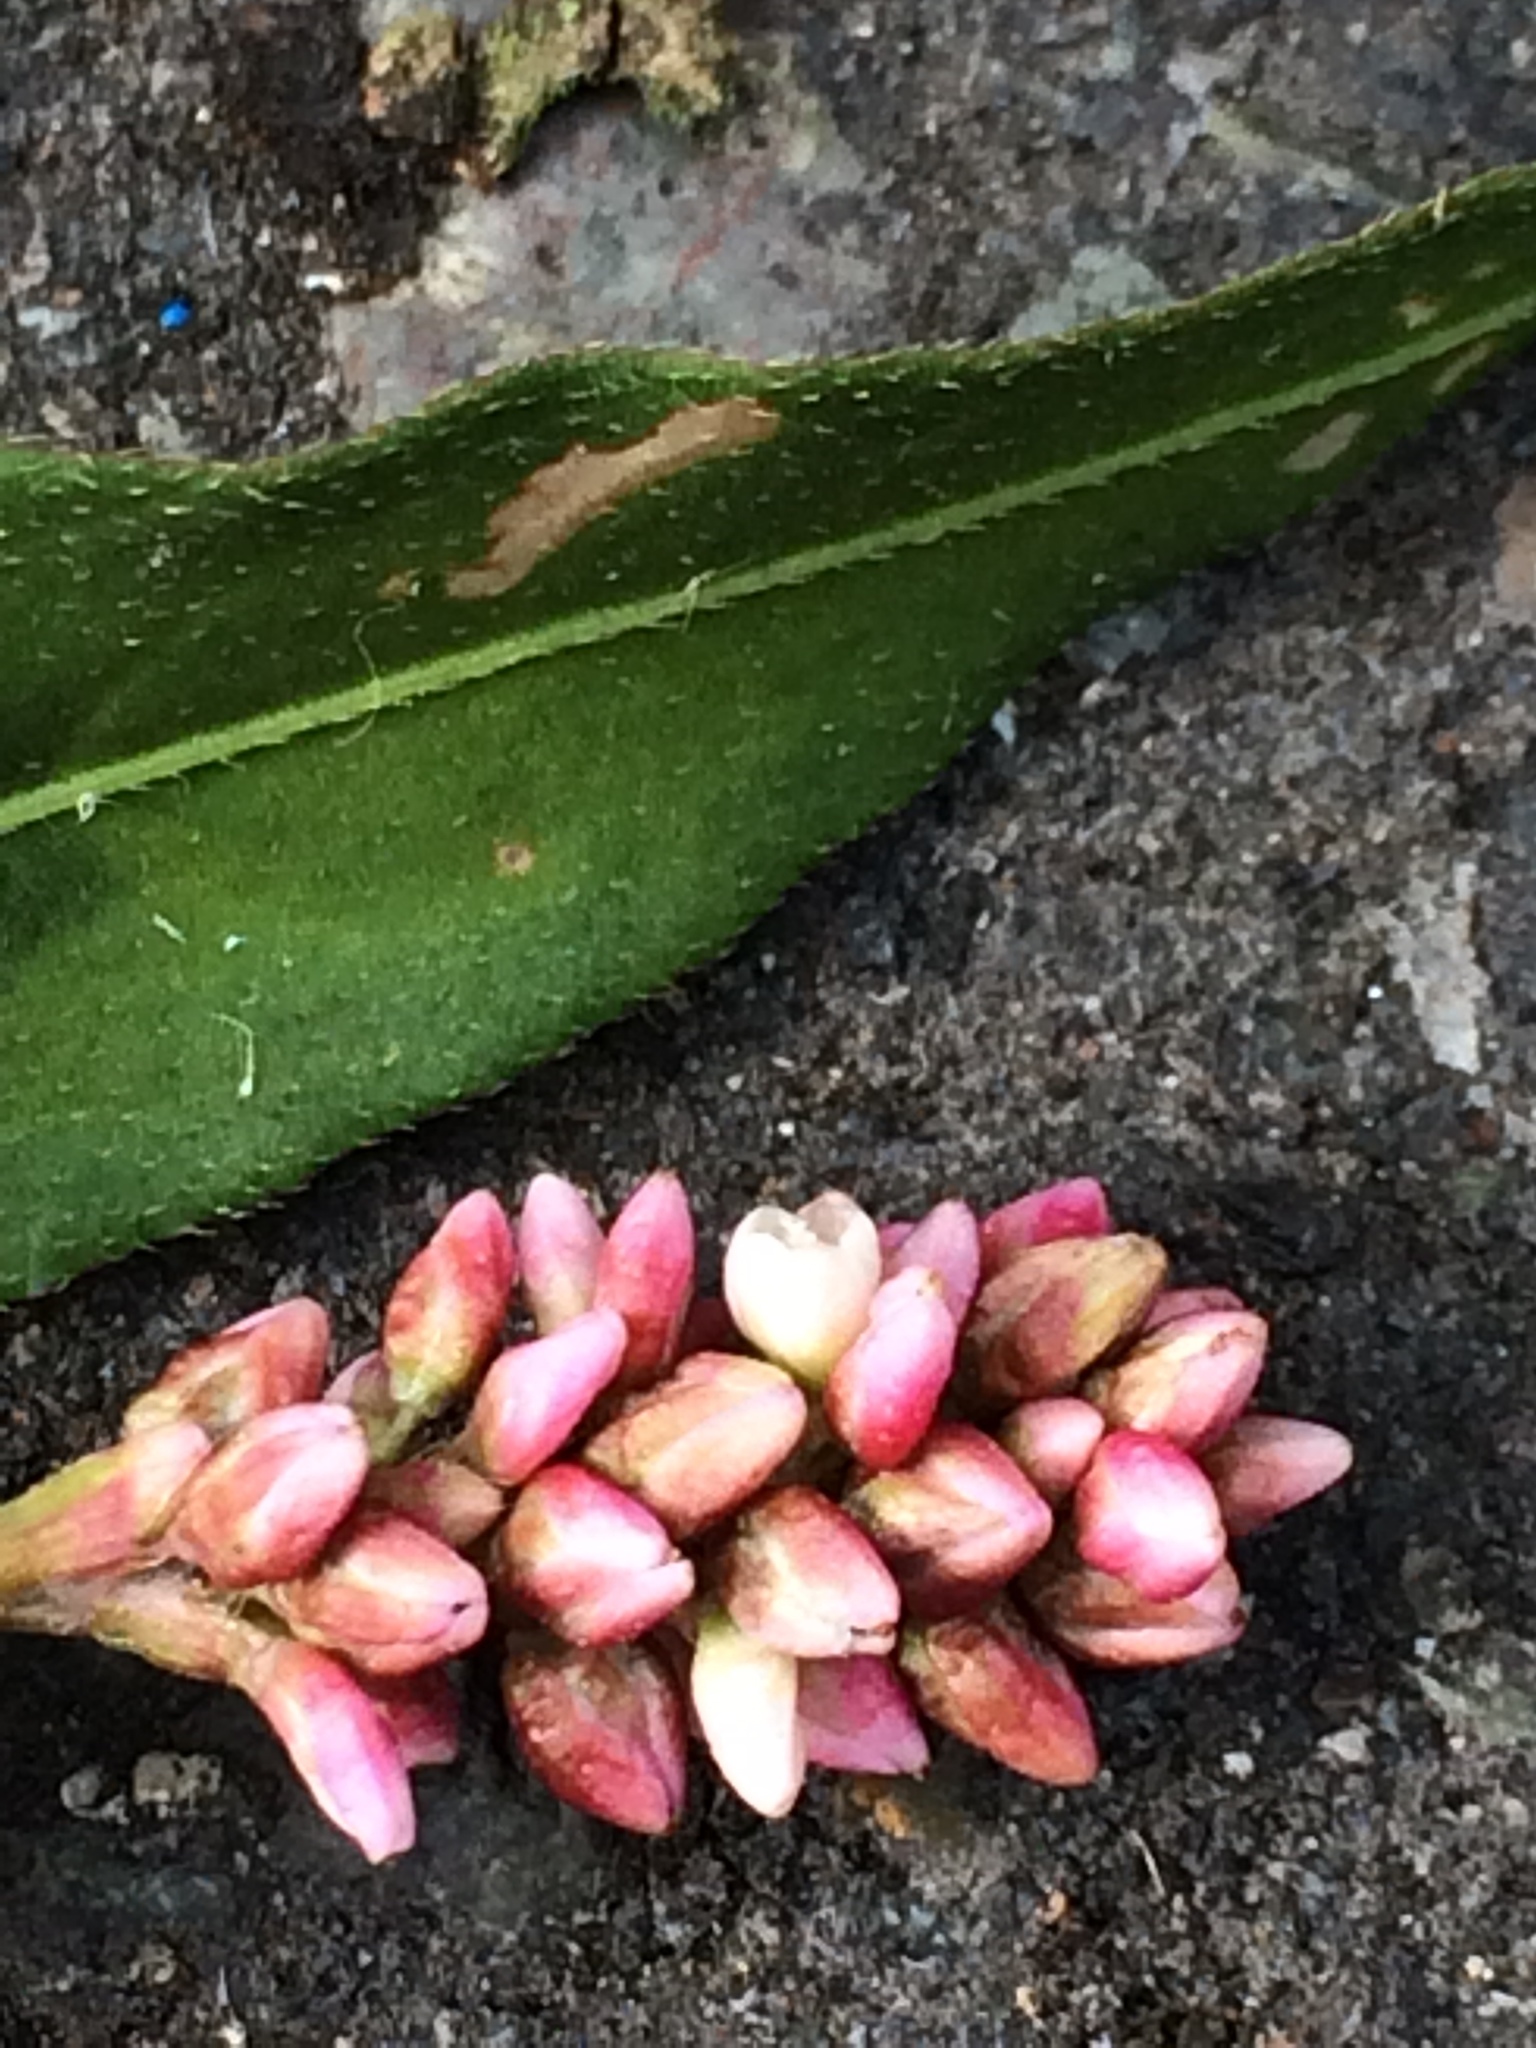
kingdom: Plantae
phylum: Tracheophyta
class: Magnoliopsida
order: Caryophyllales
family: Polygonaceae
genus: Persicaria
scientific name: Persicaria maculosa
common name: Redshank
